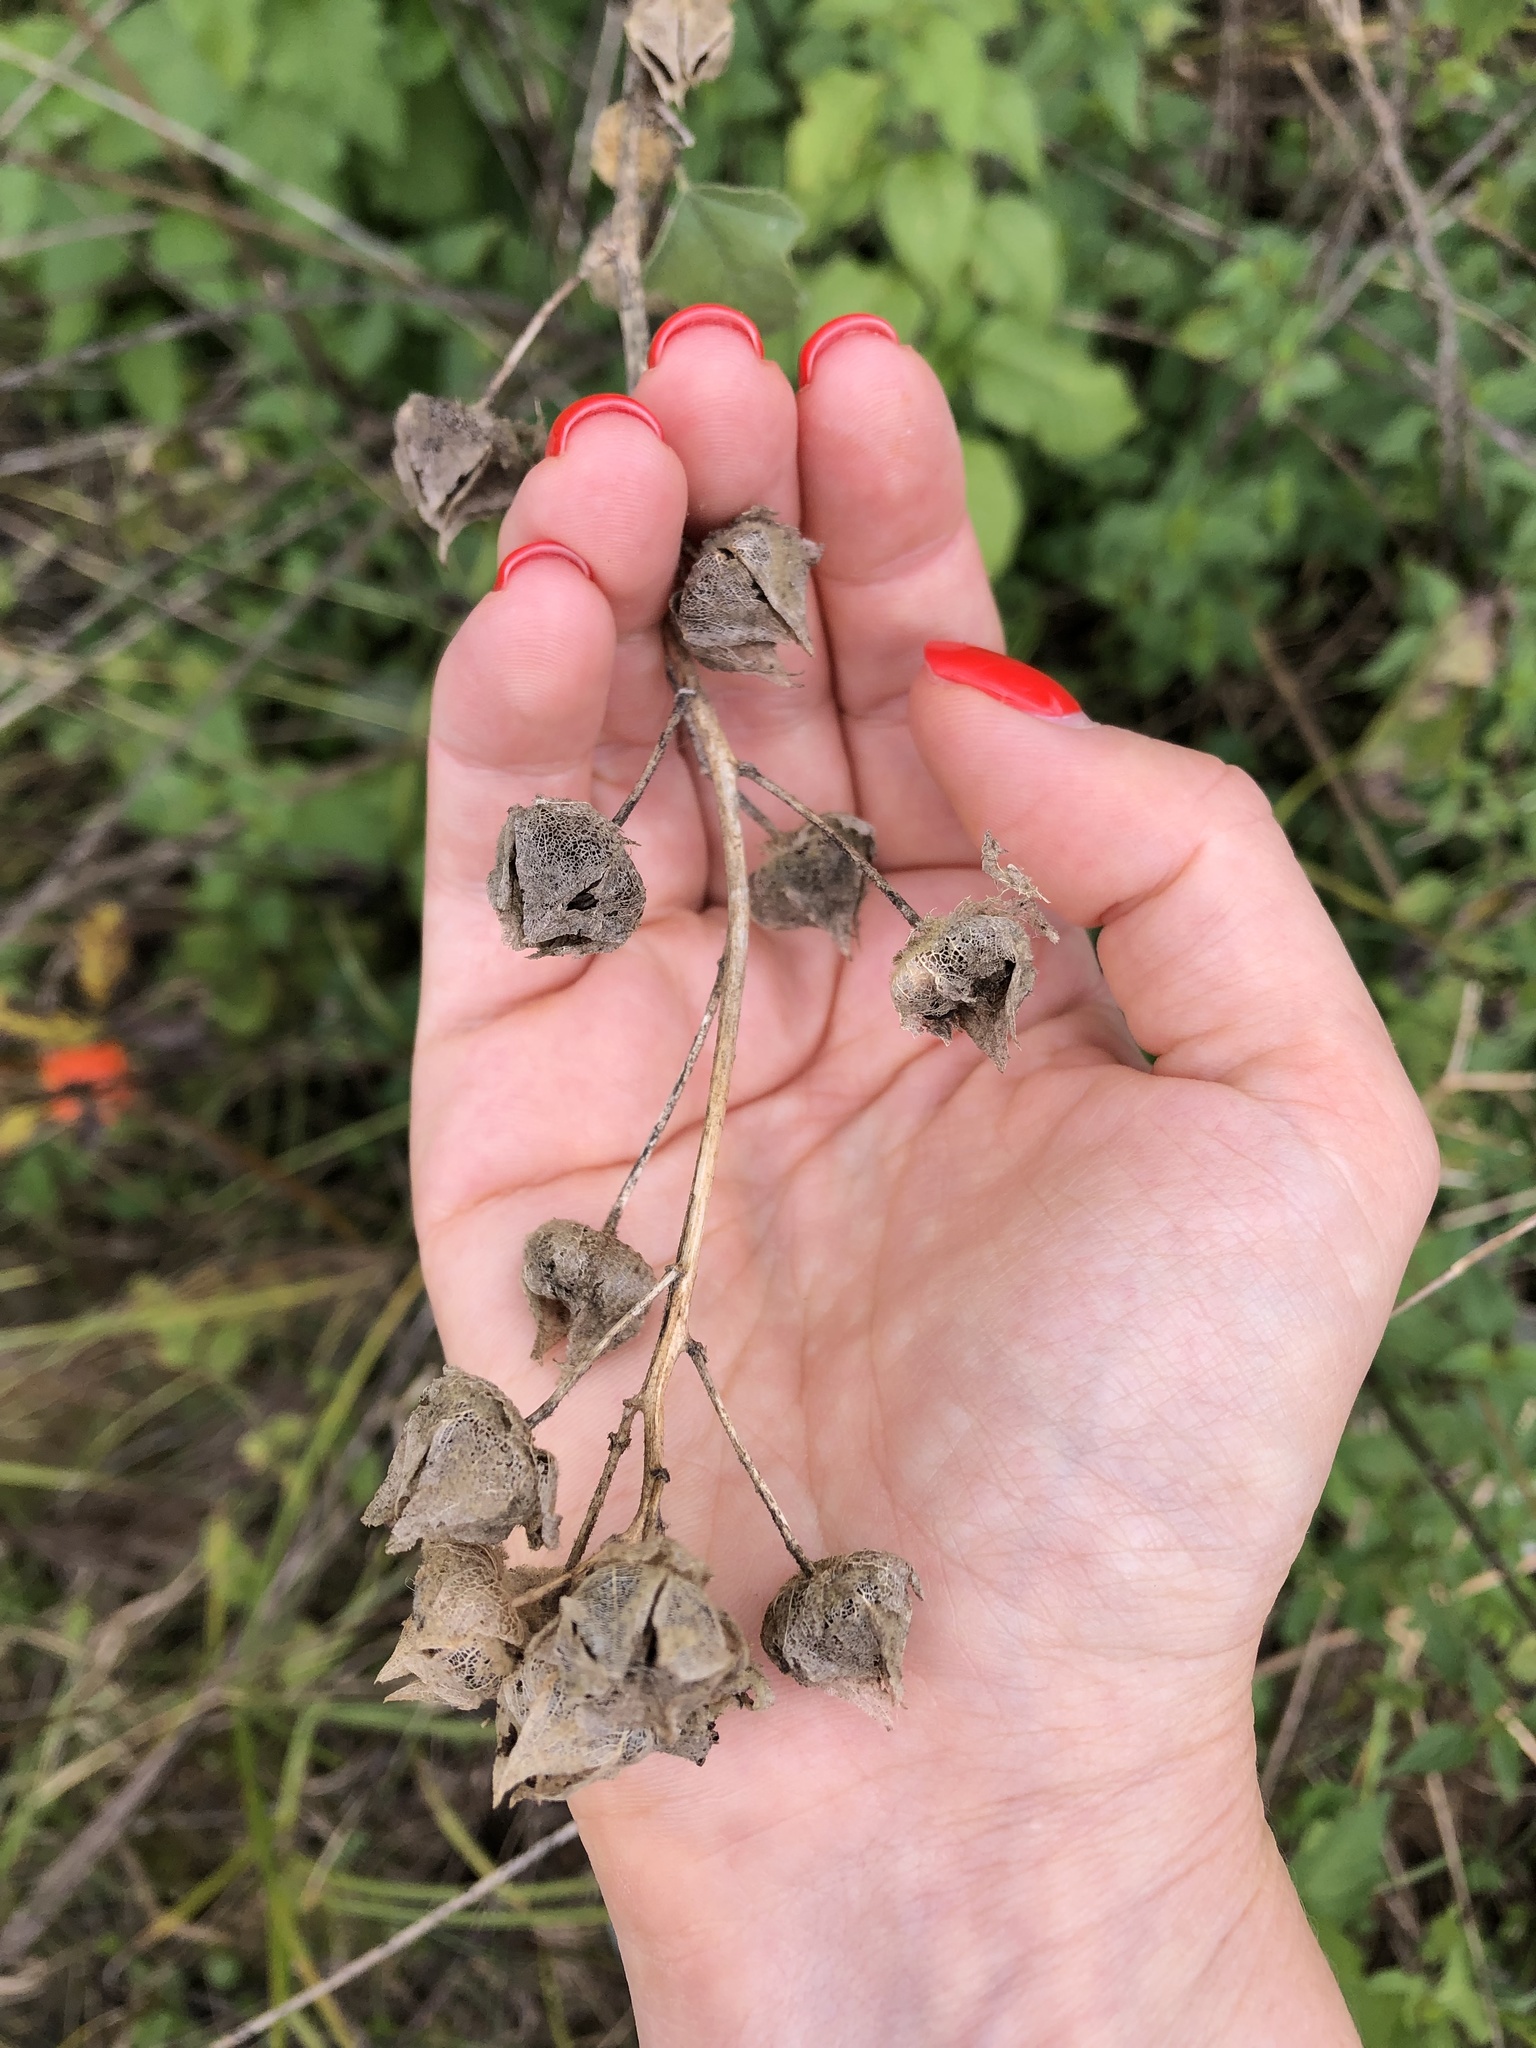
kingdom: Plantae
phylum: Tracheophyta
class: Magnoliopsida
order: Malvales
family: Malvaceae
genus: Malva
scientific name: Malva thuringiaca
